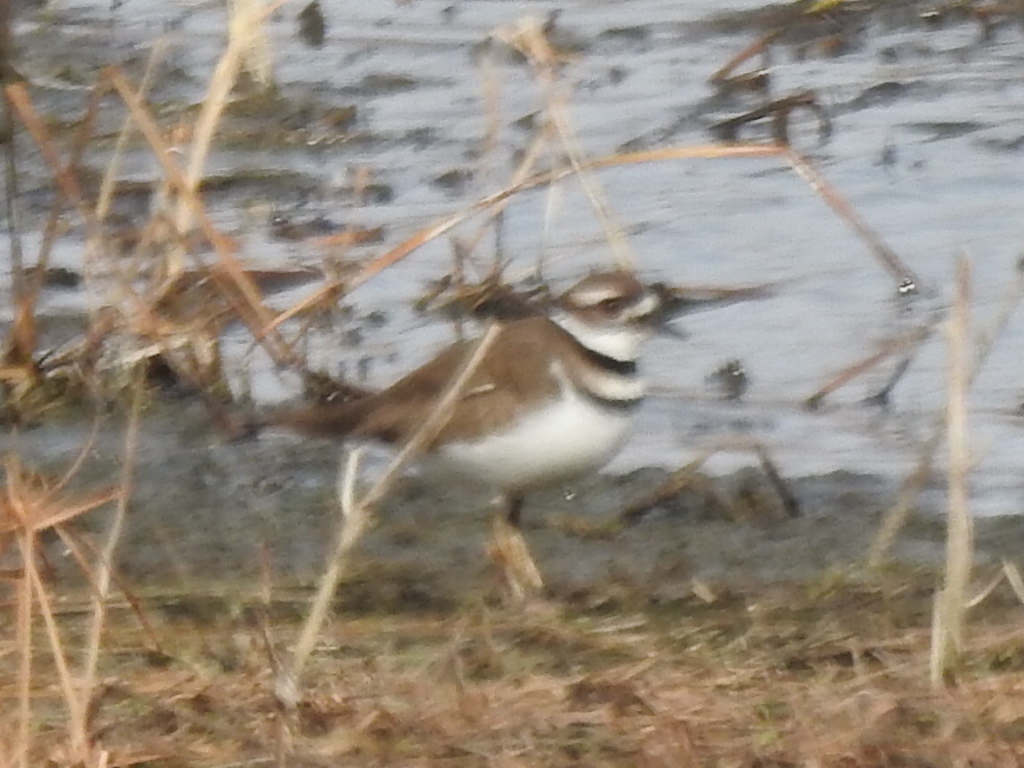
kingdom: Animalia
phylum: Chordata
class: Aves
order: Charadriiformes
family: Charadriidae
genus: Charadrius
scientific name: Charadrius vociferus
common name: Killdeer
